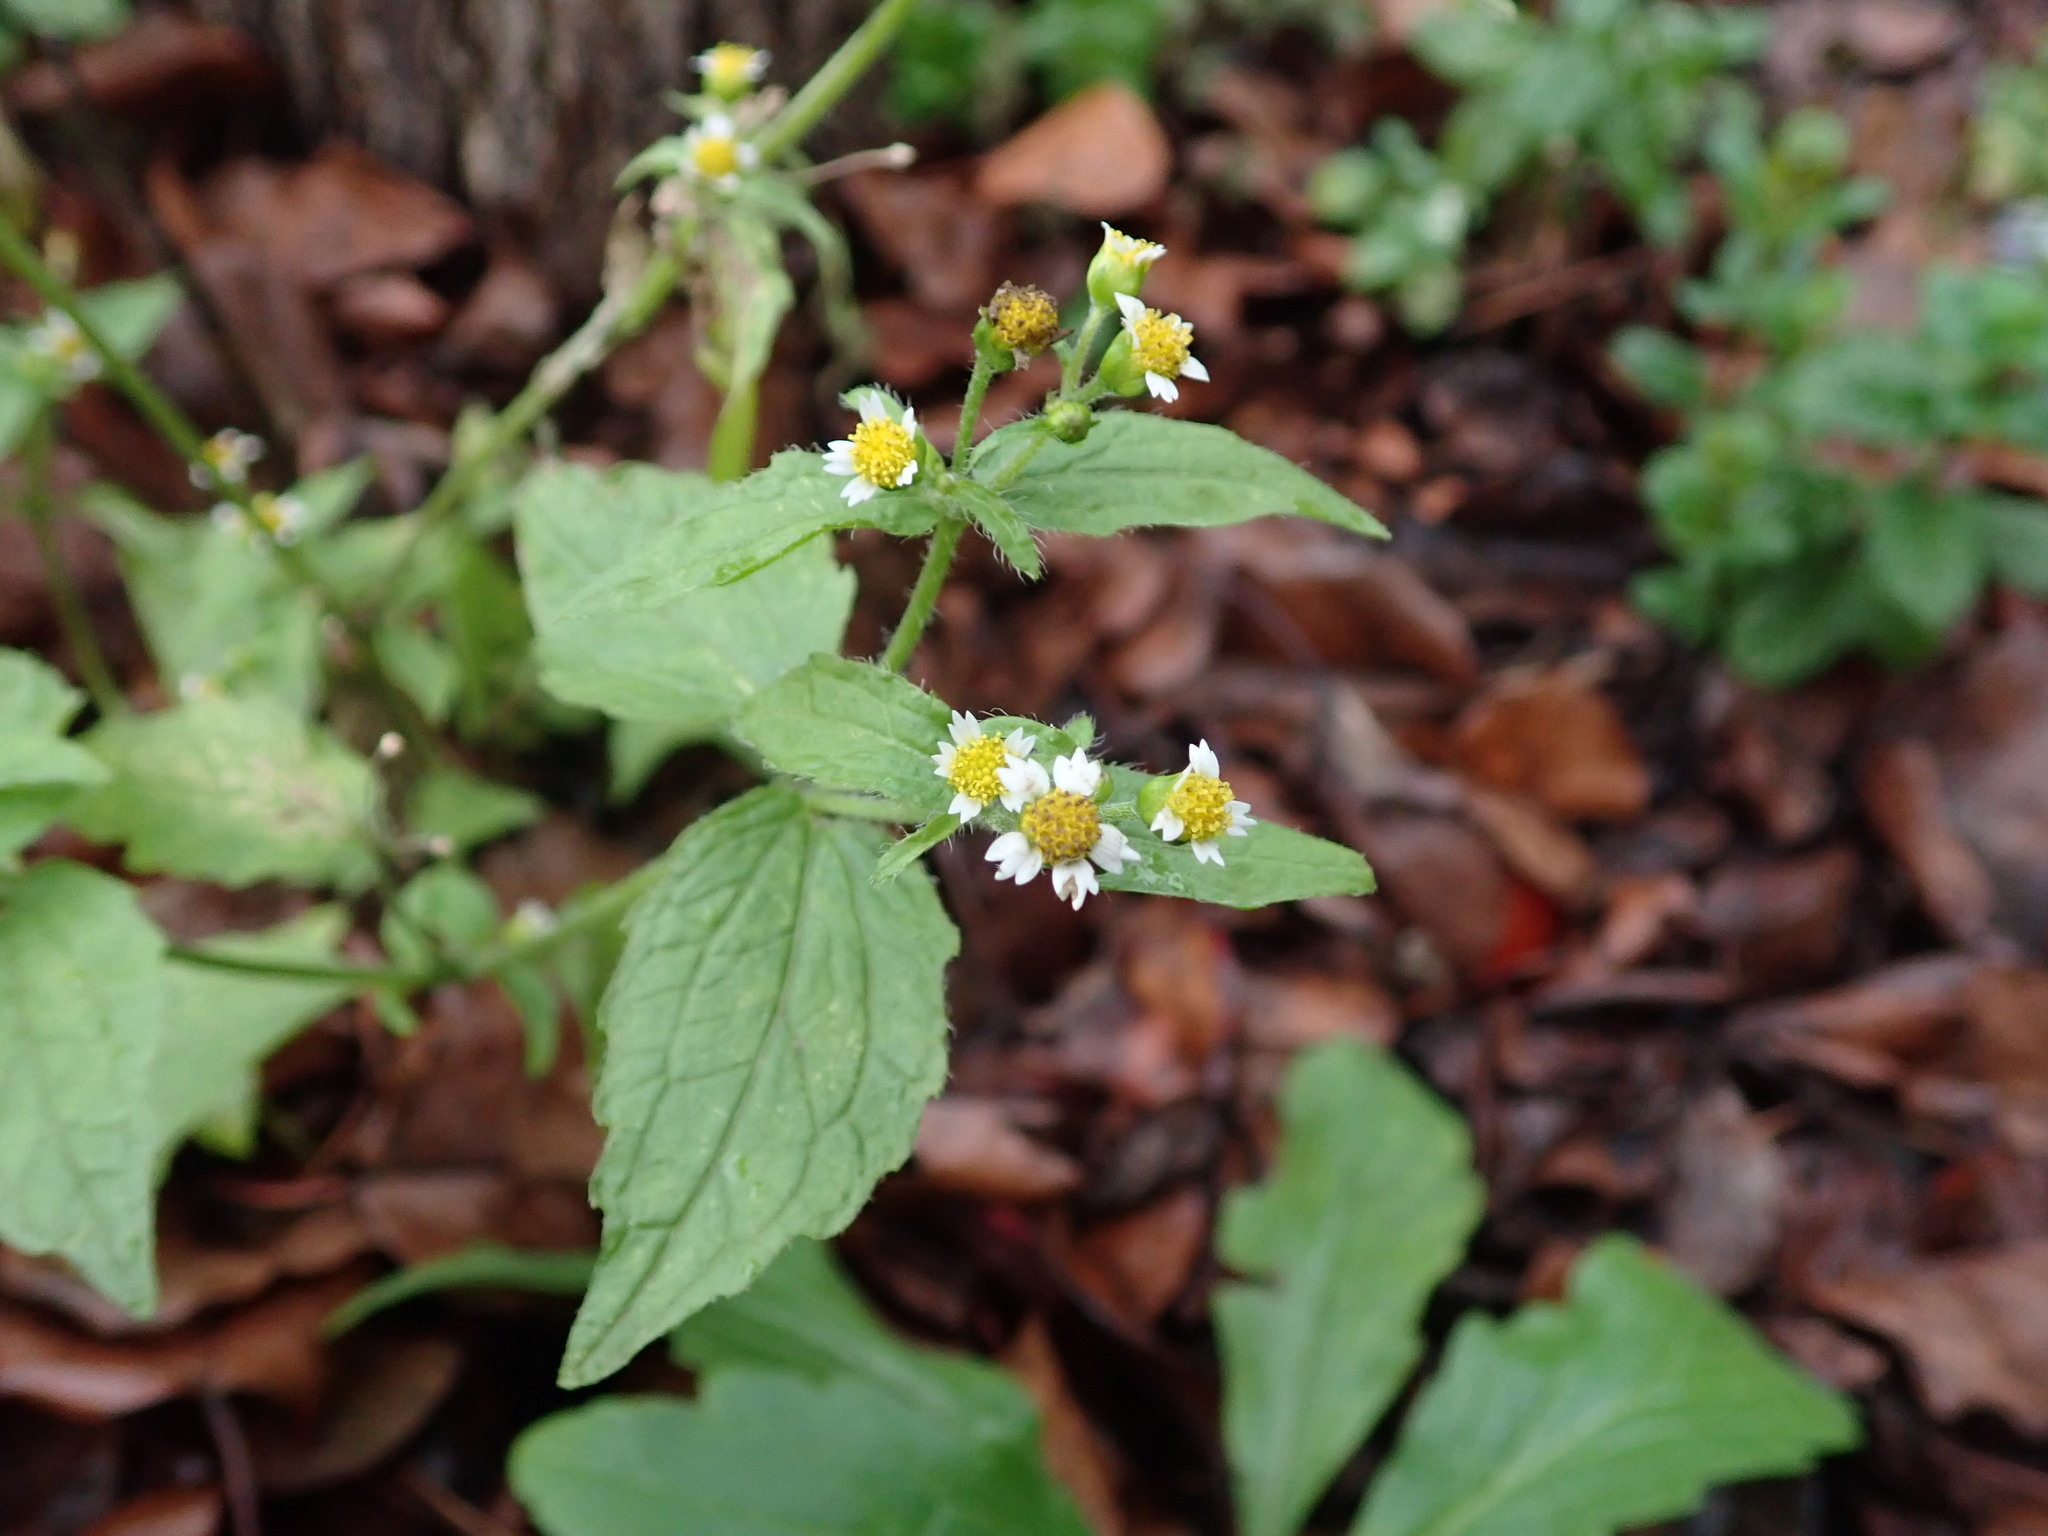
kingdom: Plantae
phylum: Tracheophyta
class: Magnoliopsida
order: Asterales
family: Asteraceae
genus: Galinsoga
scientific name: Galinsoga quadriradiata
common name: Shaggy soldier
